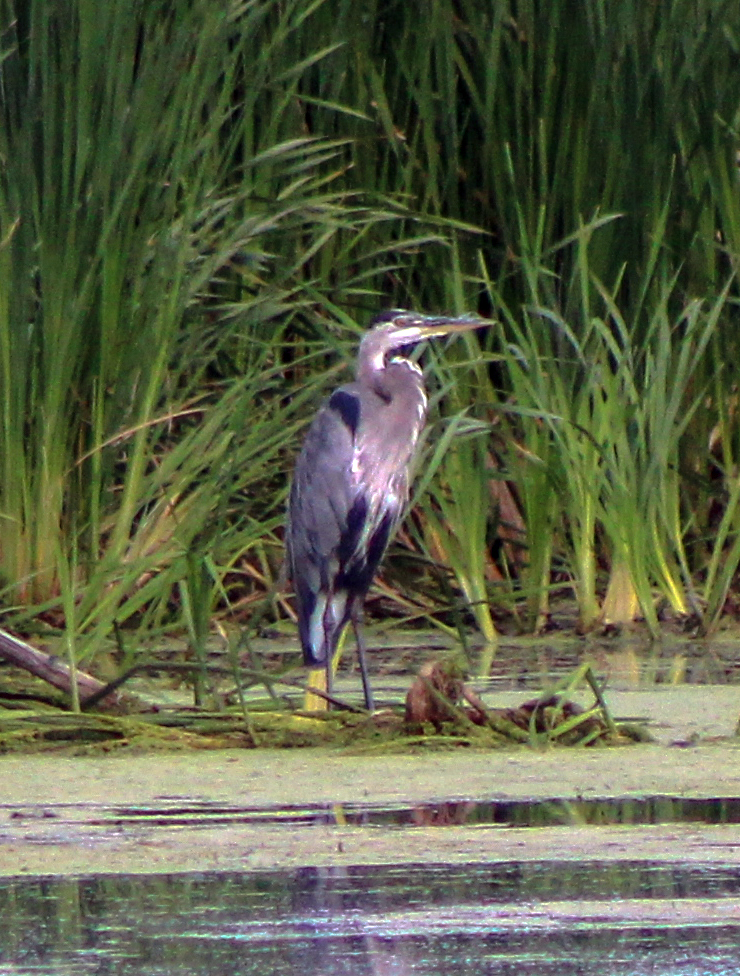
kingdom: Animalia
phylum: Chordata
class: Aves
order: Pelecaniformes
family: Ardeidae
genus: Ardea
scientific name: Ardea herodias
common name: Great blue heron
